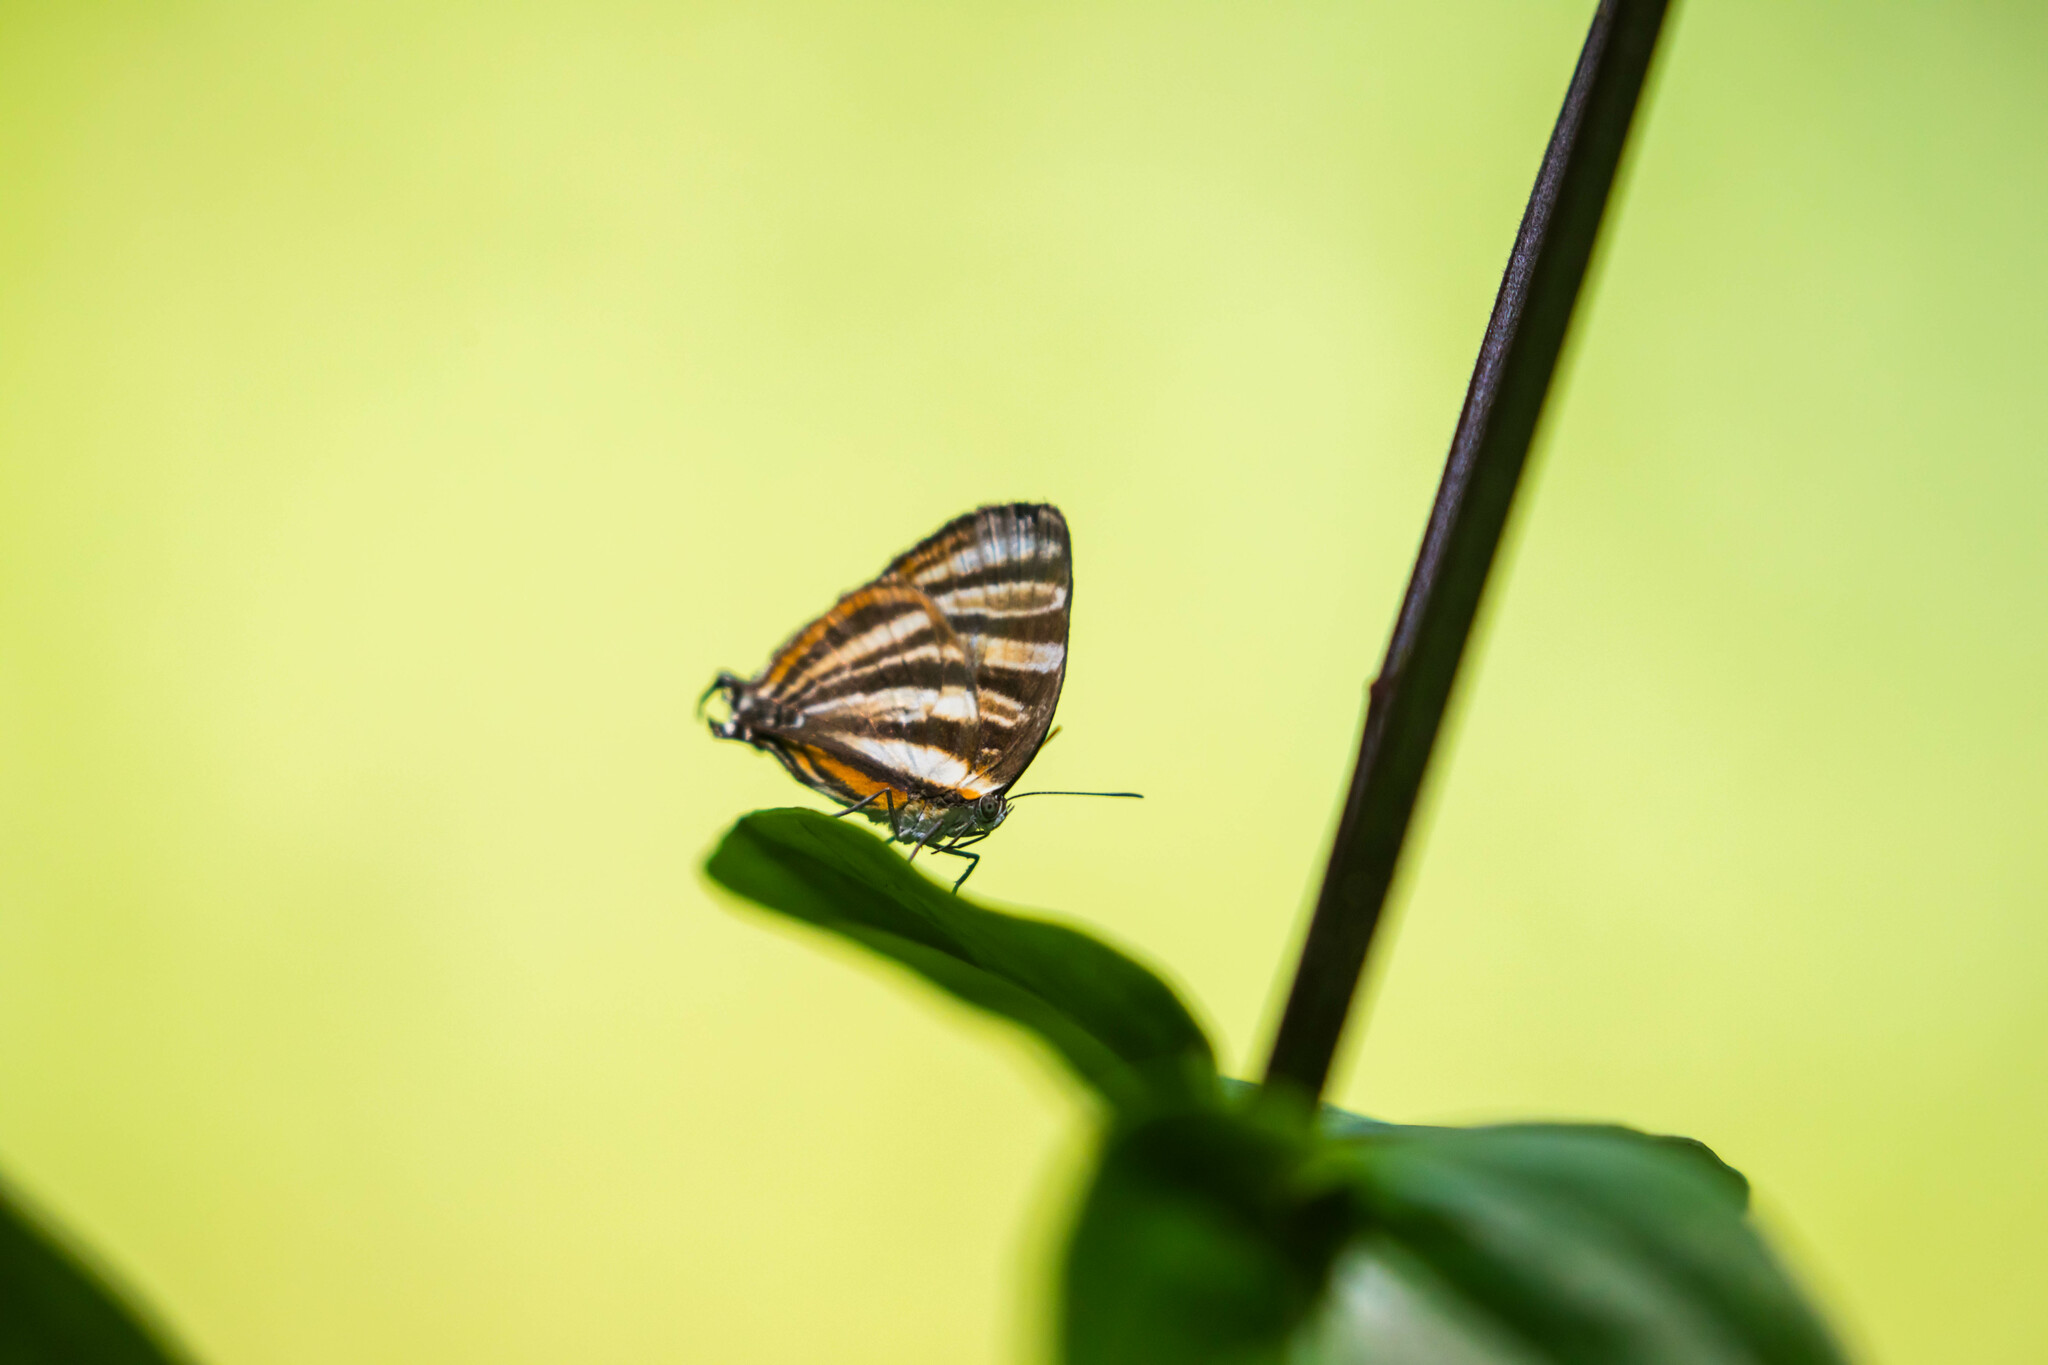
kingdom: Animalia
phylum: Arthropoda
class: Insecta
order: Lepidoptera
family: Lycaenidae
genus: Thecla
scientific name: Thecla aetolus
